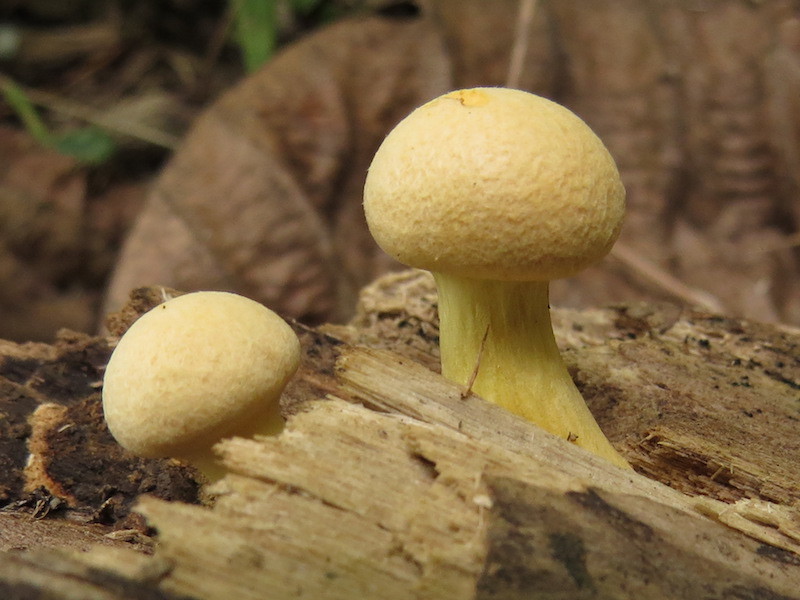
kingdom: Fungi
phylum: Basidiomycota
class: Agaricomycetes
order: Agaricales
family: Hymenogastraceae
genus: Gymnopilus
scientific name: Gymnopilus luteus
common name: Yellow gymnopilus
